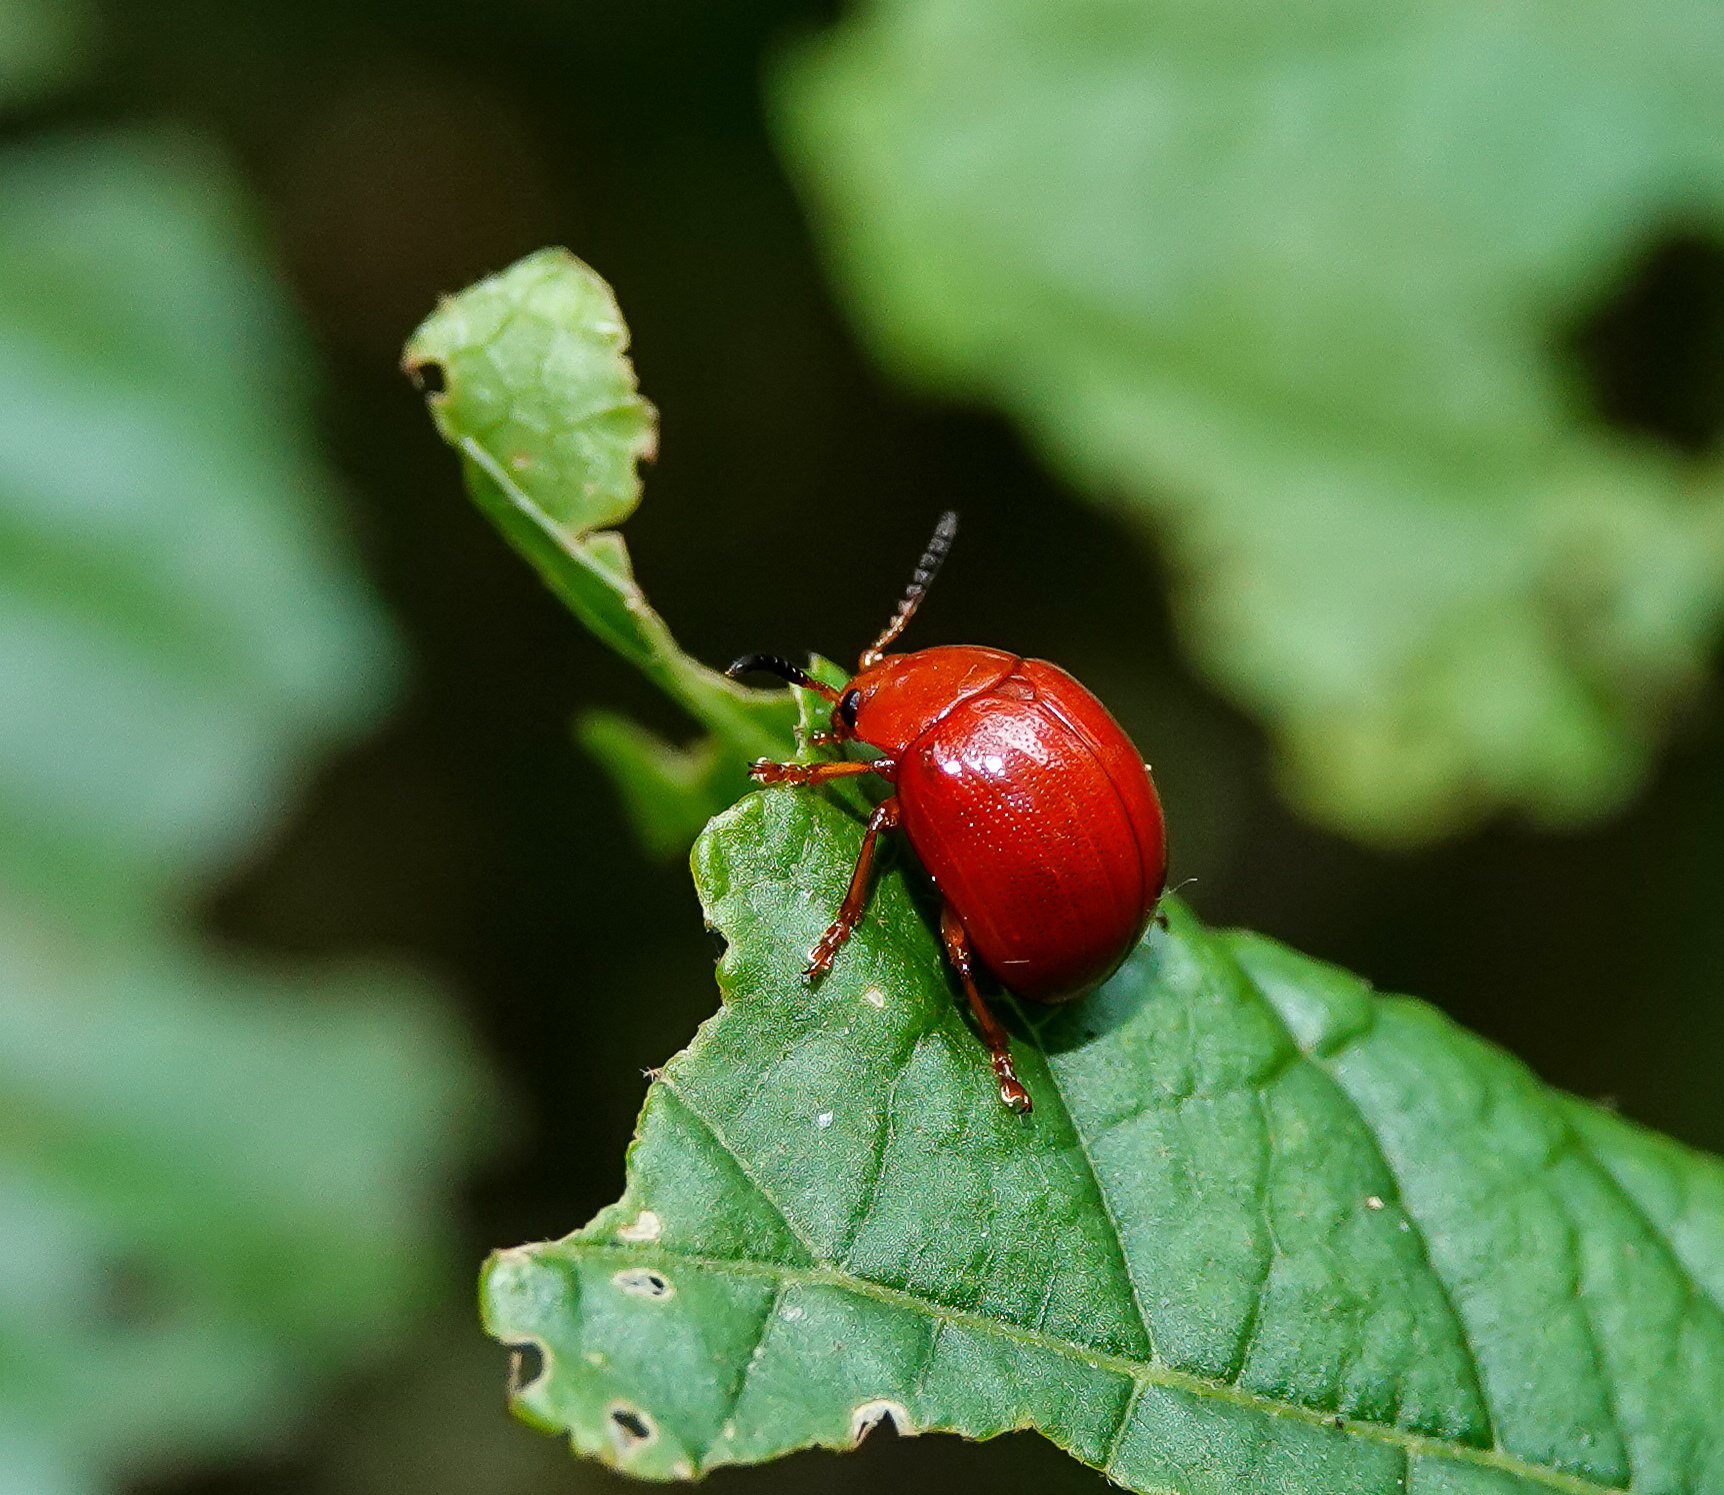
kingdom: Animalia
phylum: Arthropoda
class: Insecta
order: Coleoptera
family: Chrysomelidae
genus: Lycaria
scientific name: Lycaria
